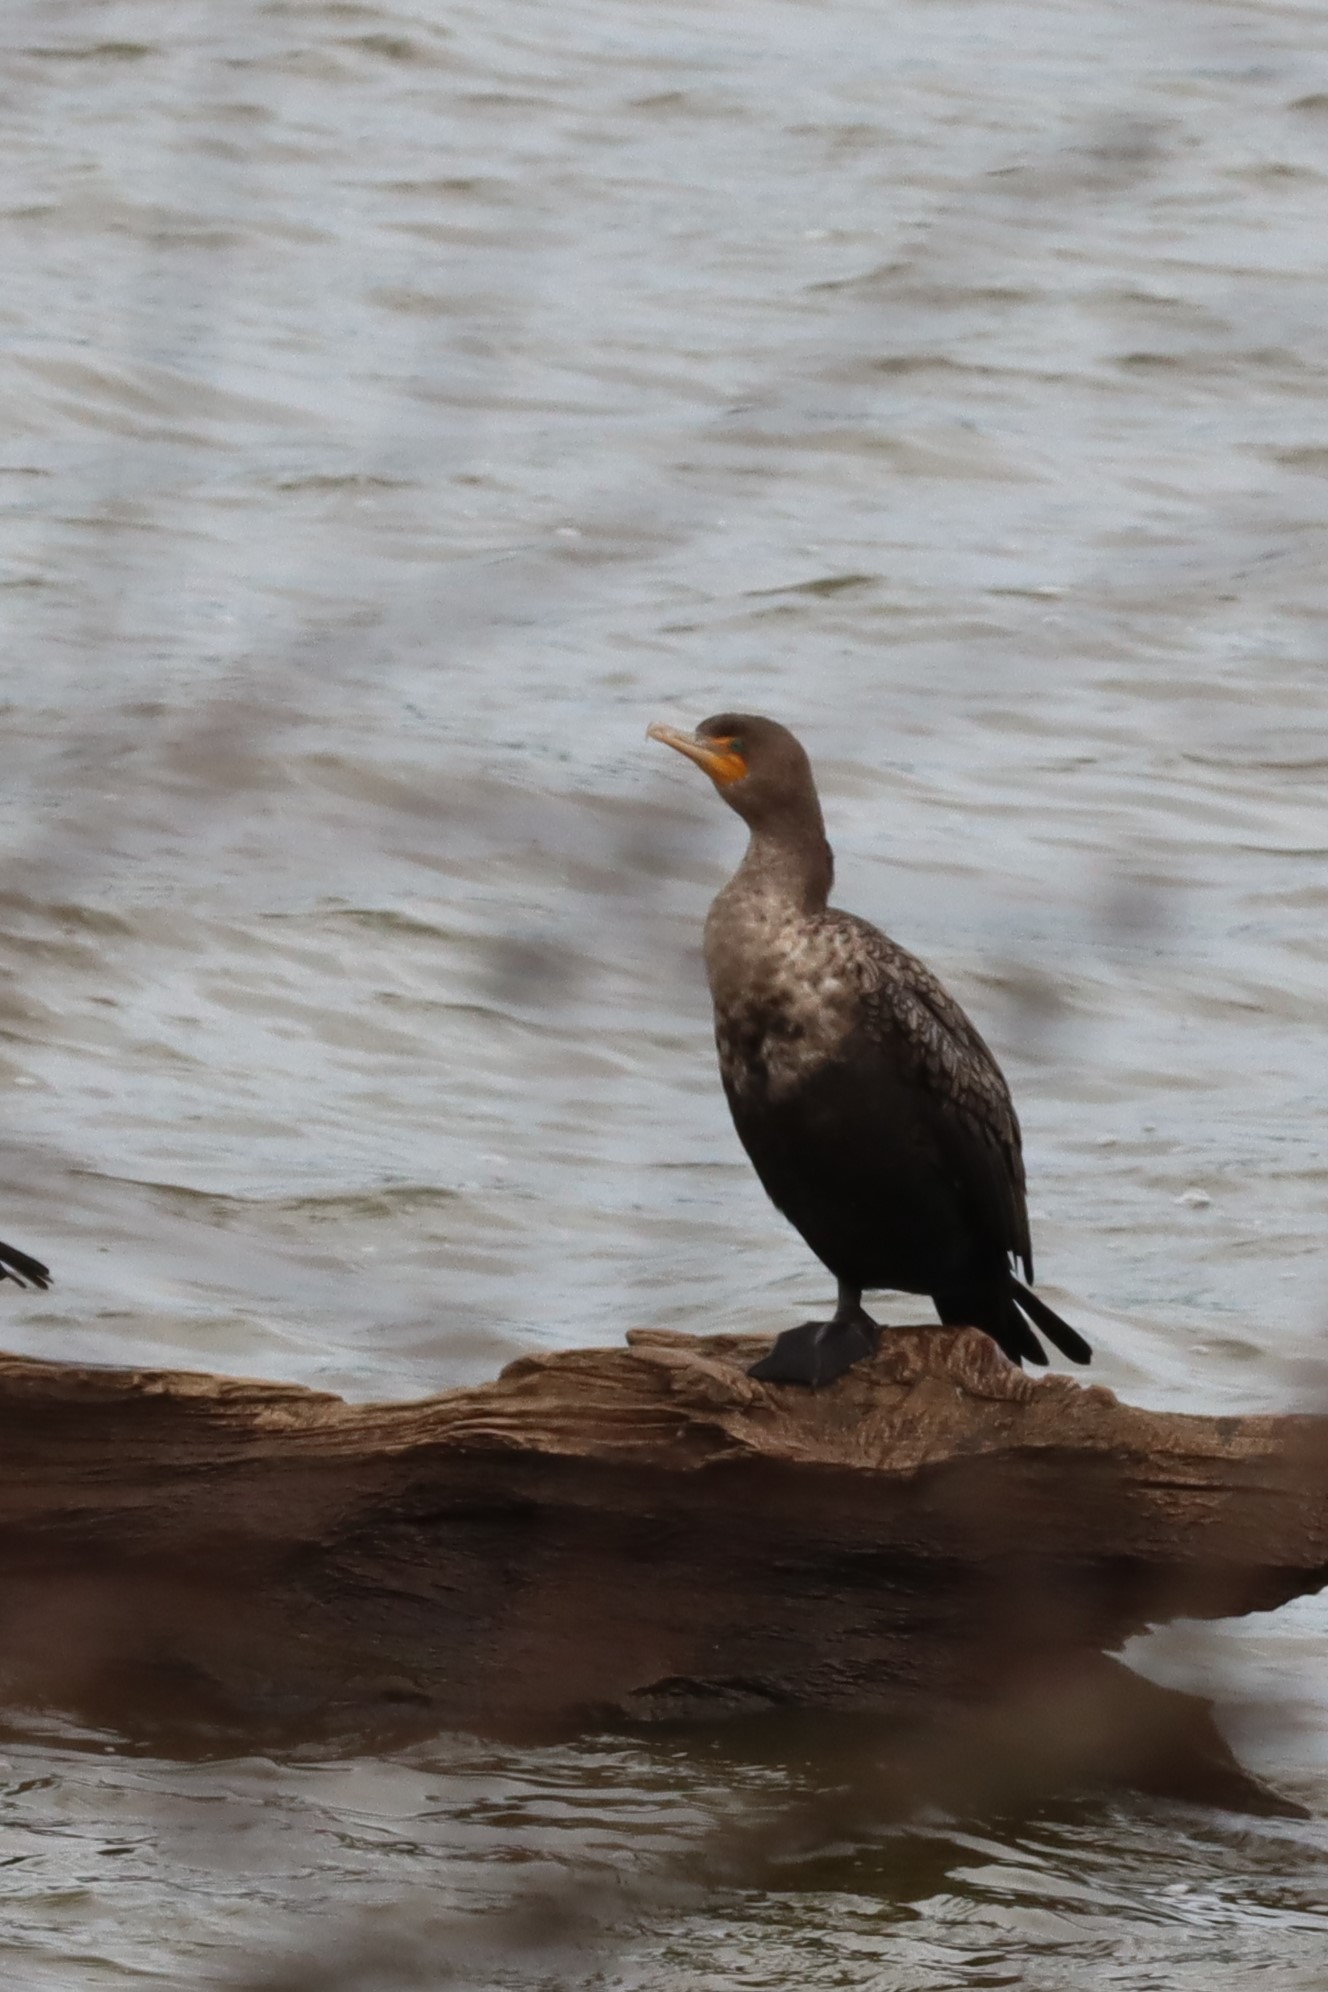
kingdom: Animalia
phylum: Chordata
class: Aves
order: Suliformes
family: Phalacrocoracidae
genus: Phalacrocorax
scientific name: Phalacrocorax auritus
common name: Double-crested cormorant
